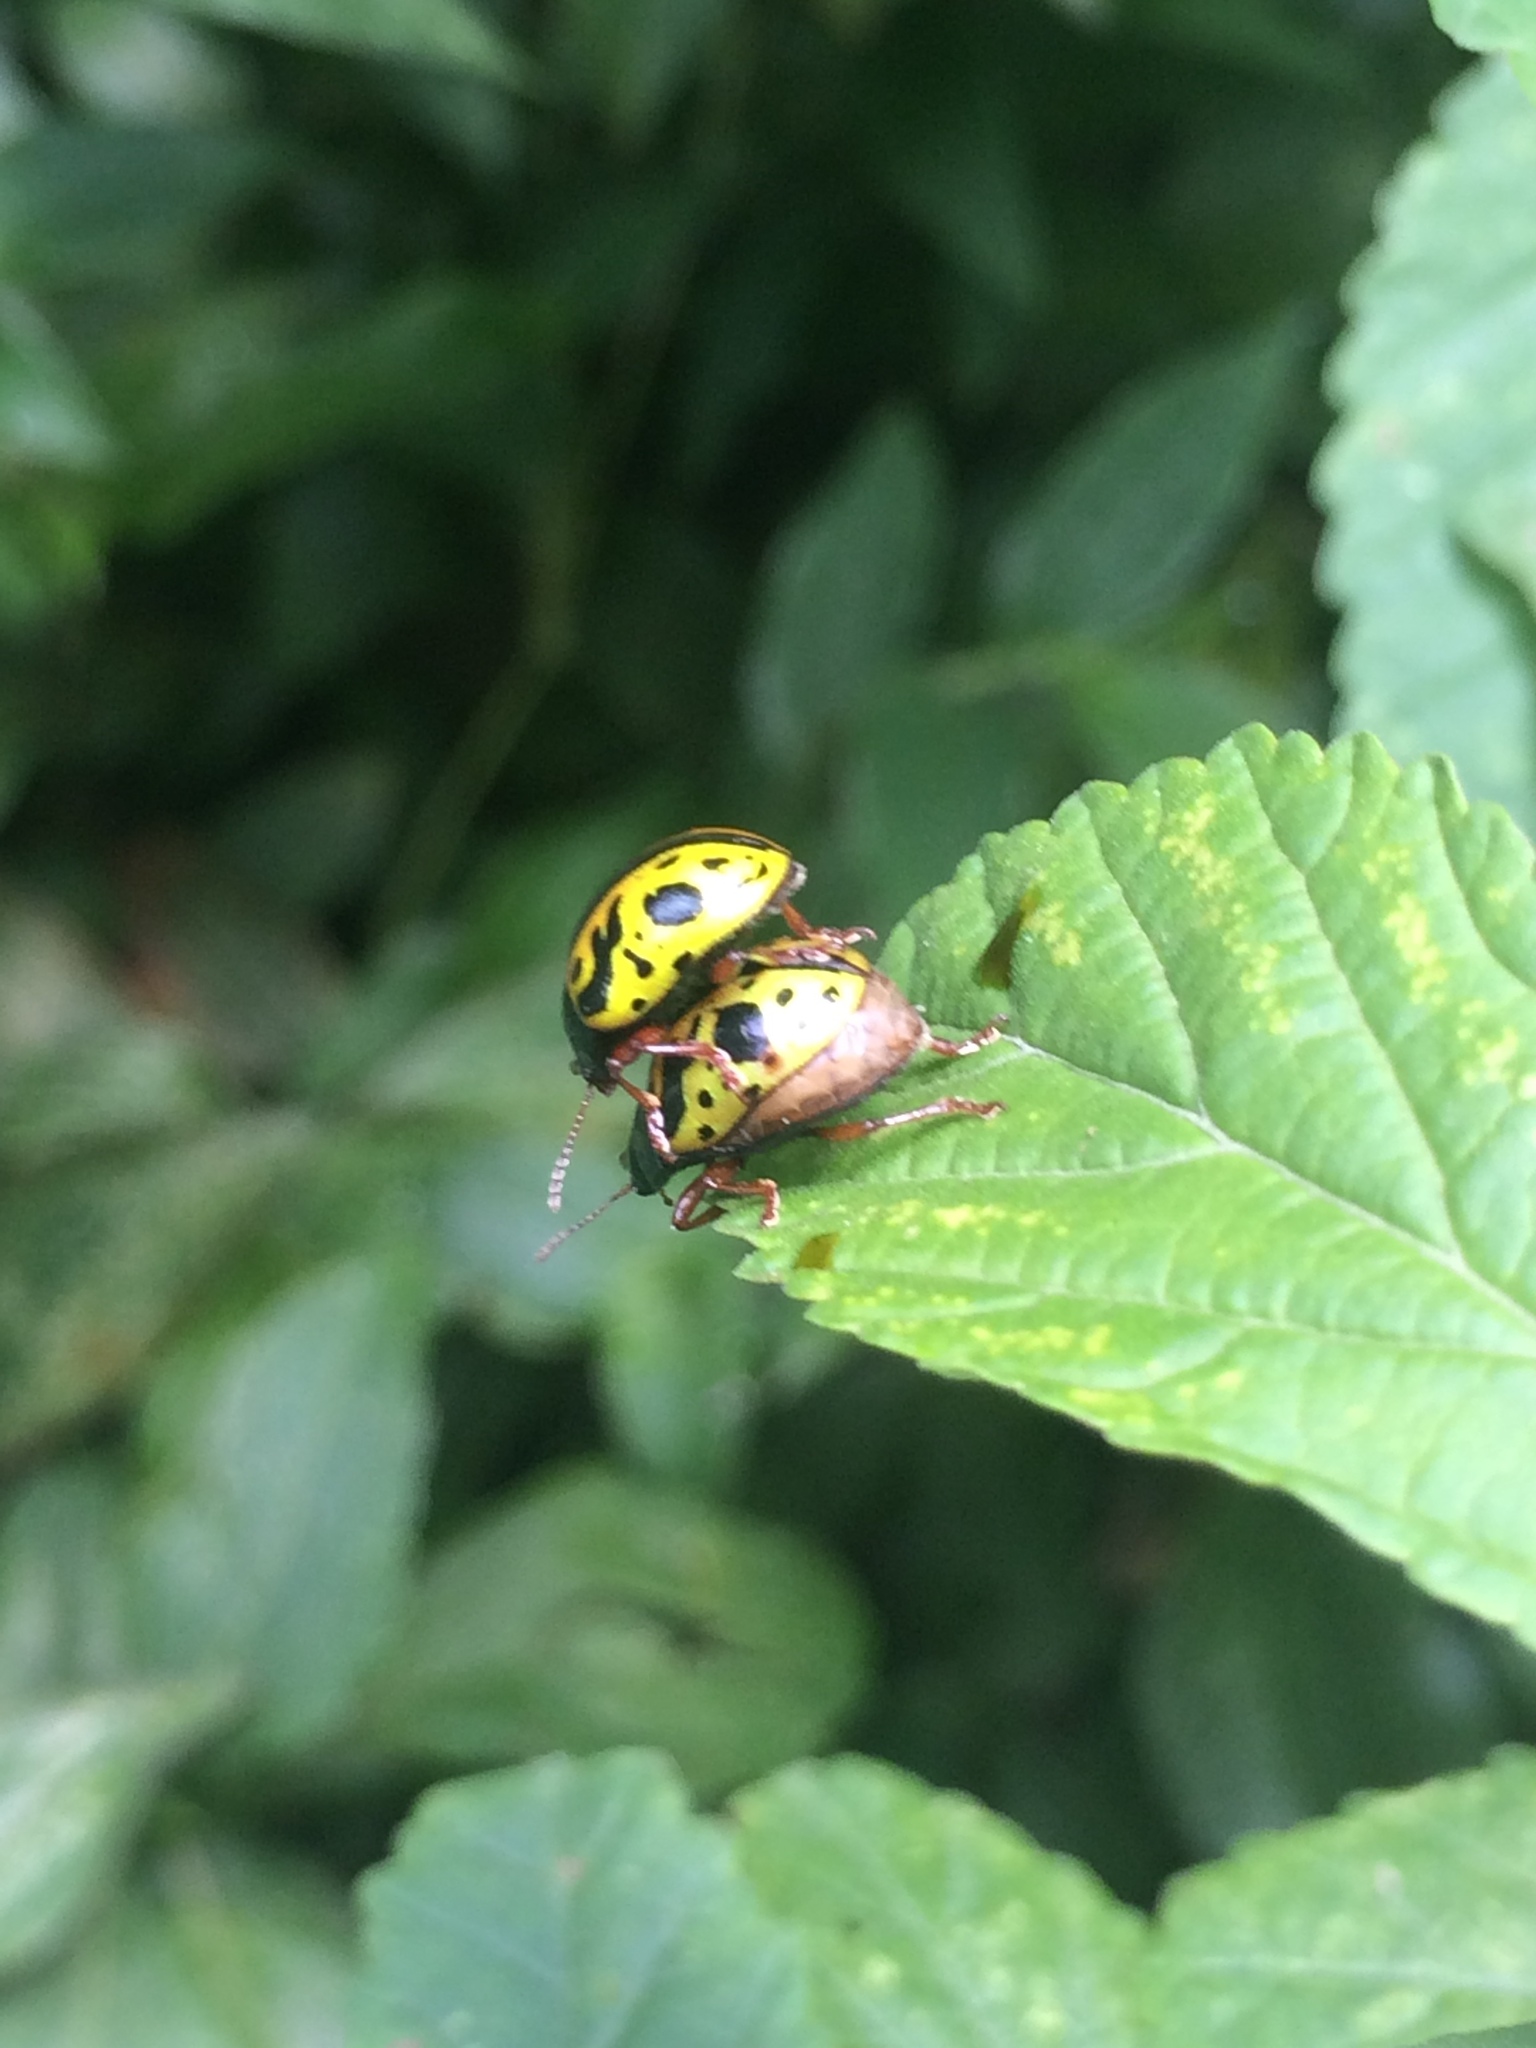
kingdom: Animalia
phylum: Arthropoda
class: Insecta
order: Coleoptera
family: Chrysomelidae
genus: Calligrapha
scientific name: Calligrapha fulvipes
